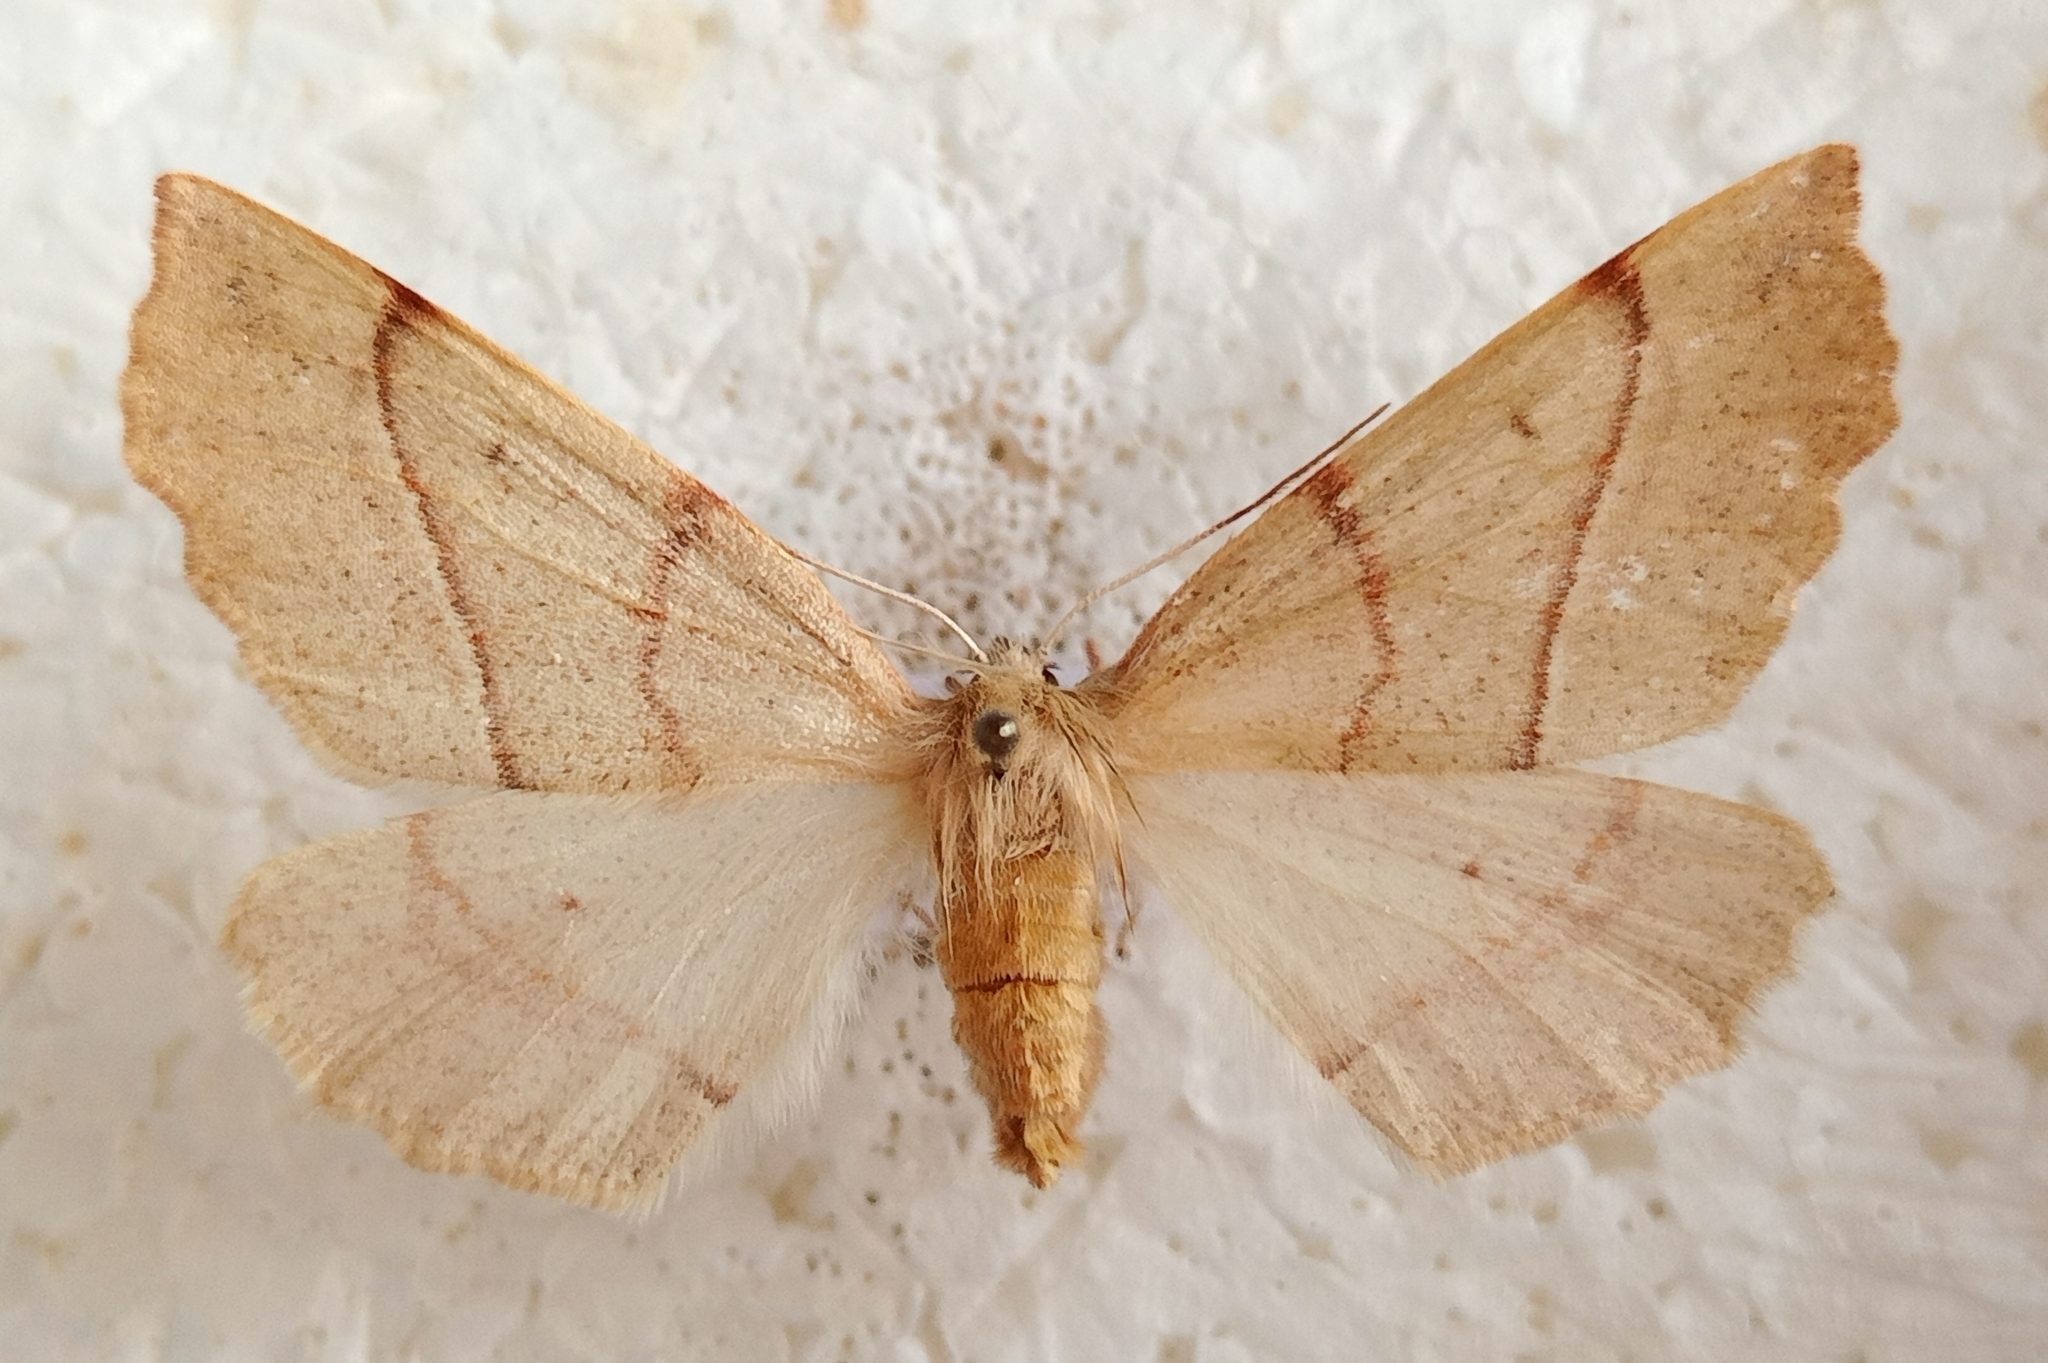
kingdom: Animalia
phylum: Arthropoda
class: Insecta
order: Lepidoptera
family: Geometridae
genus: Colotois
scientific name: Colotois pennaria
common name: Feathered thorn
